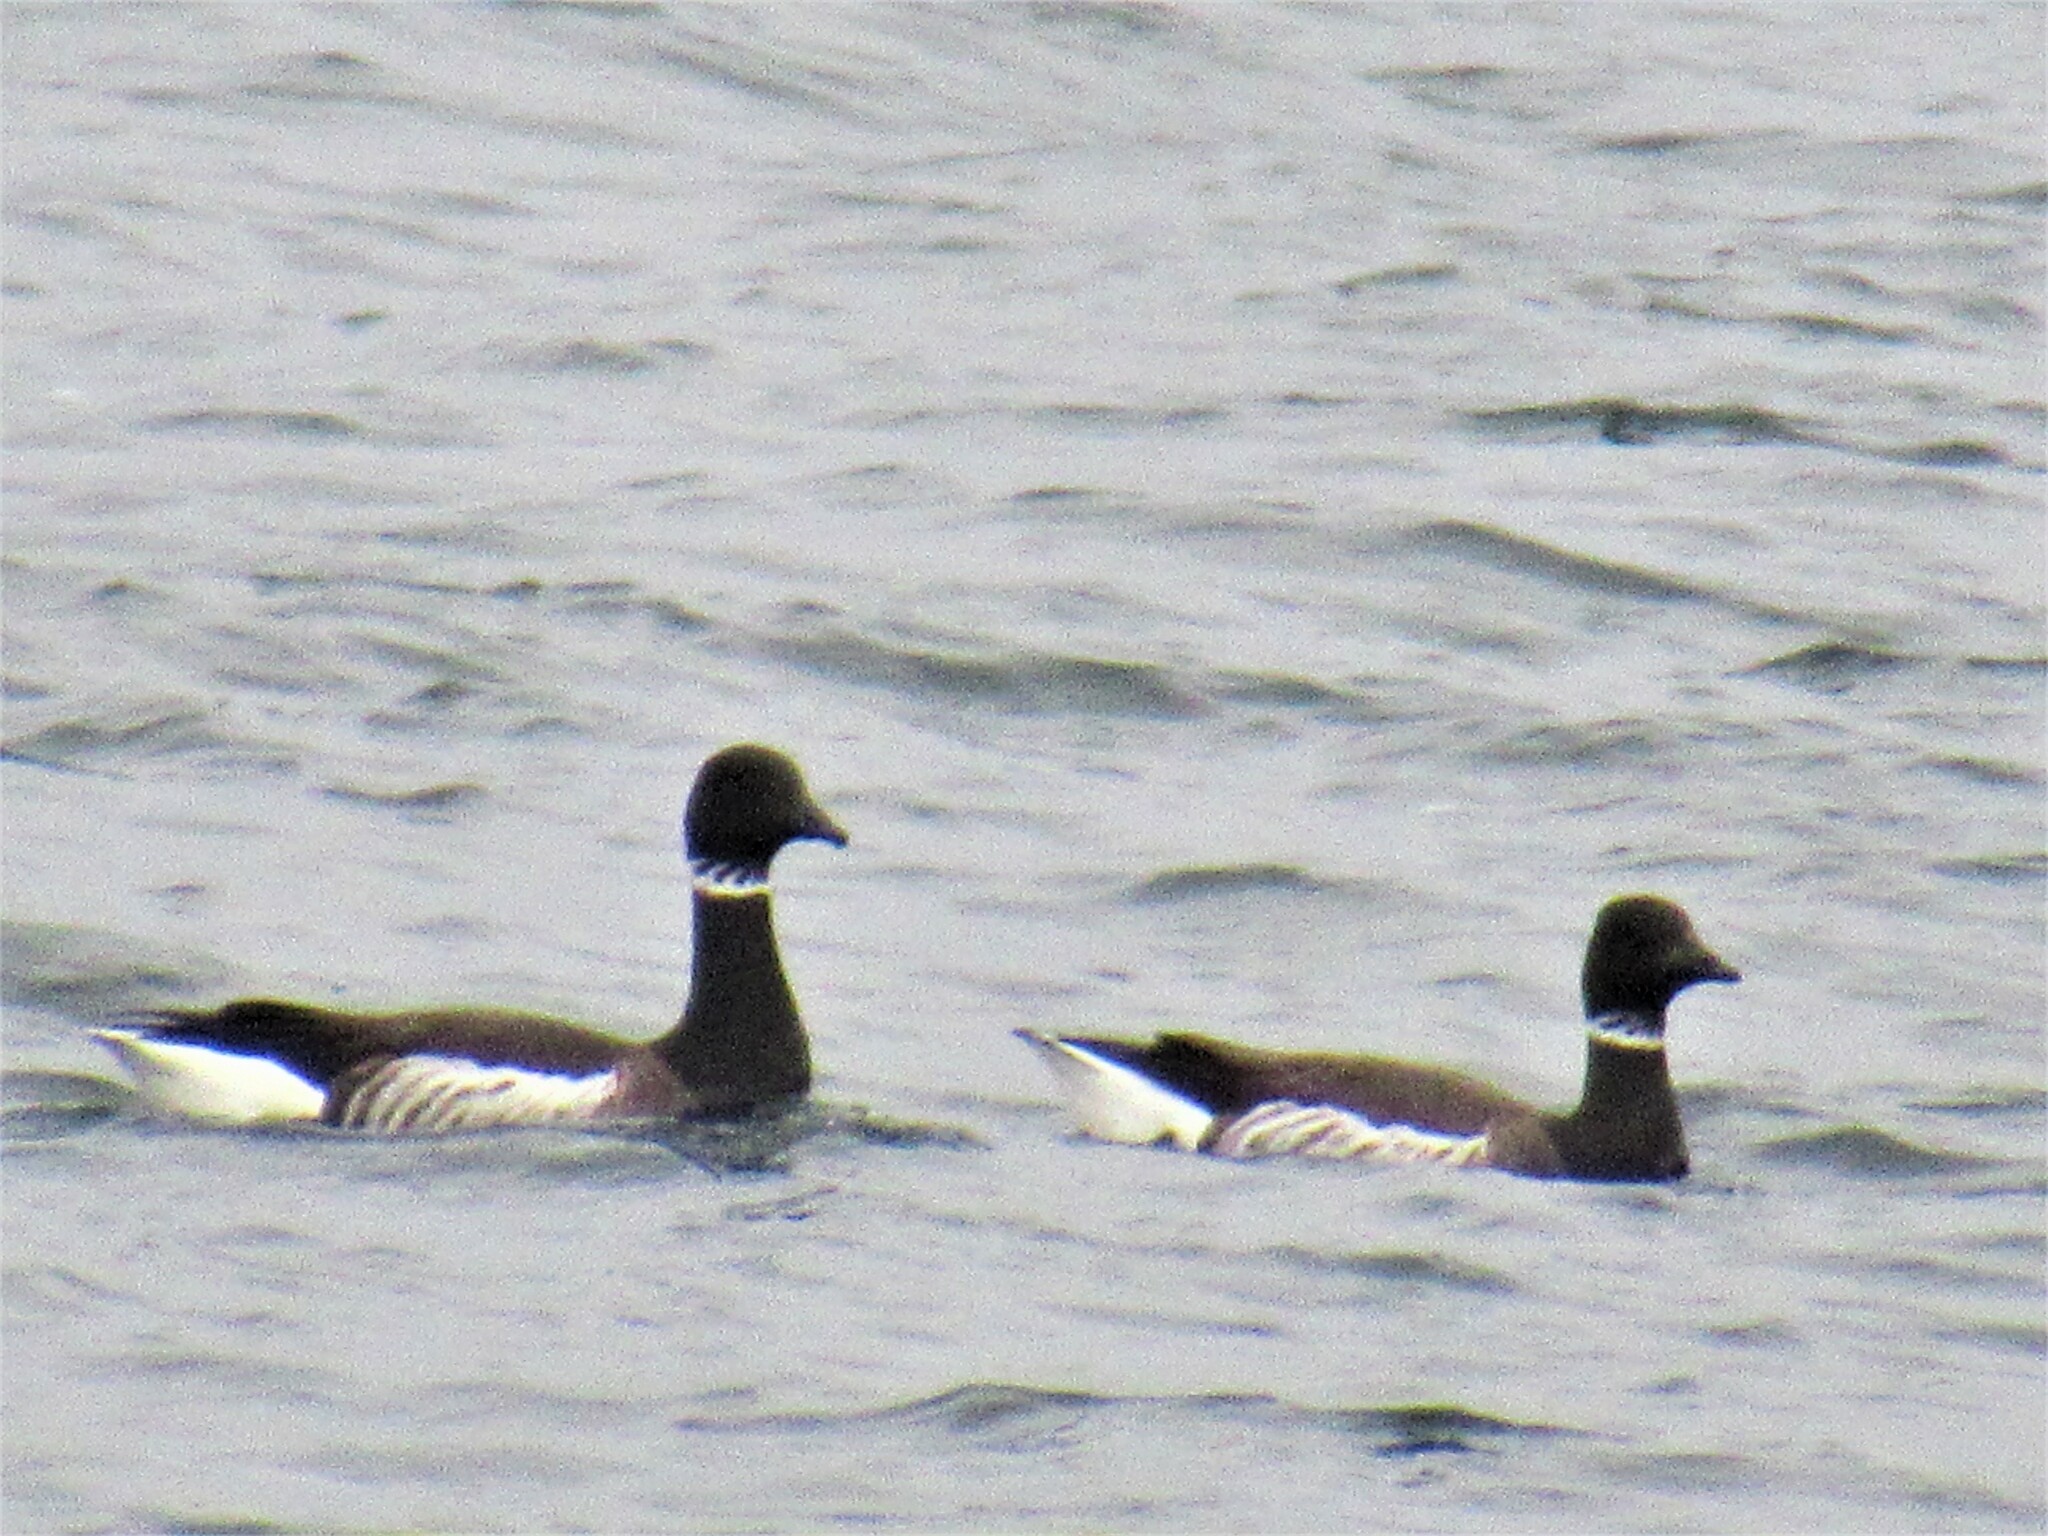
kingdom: Animalia
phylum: Chordata
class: Aves
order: Anseriformes
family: Anatidae
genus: Branta
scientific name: Branta bernicla
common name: Brant goose
